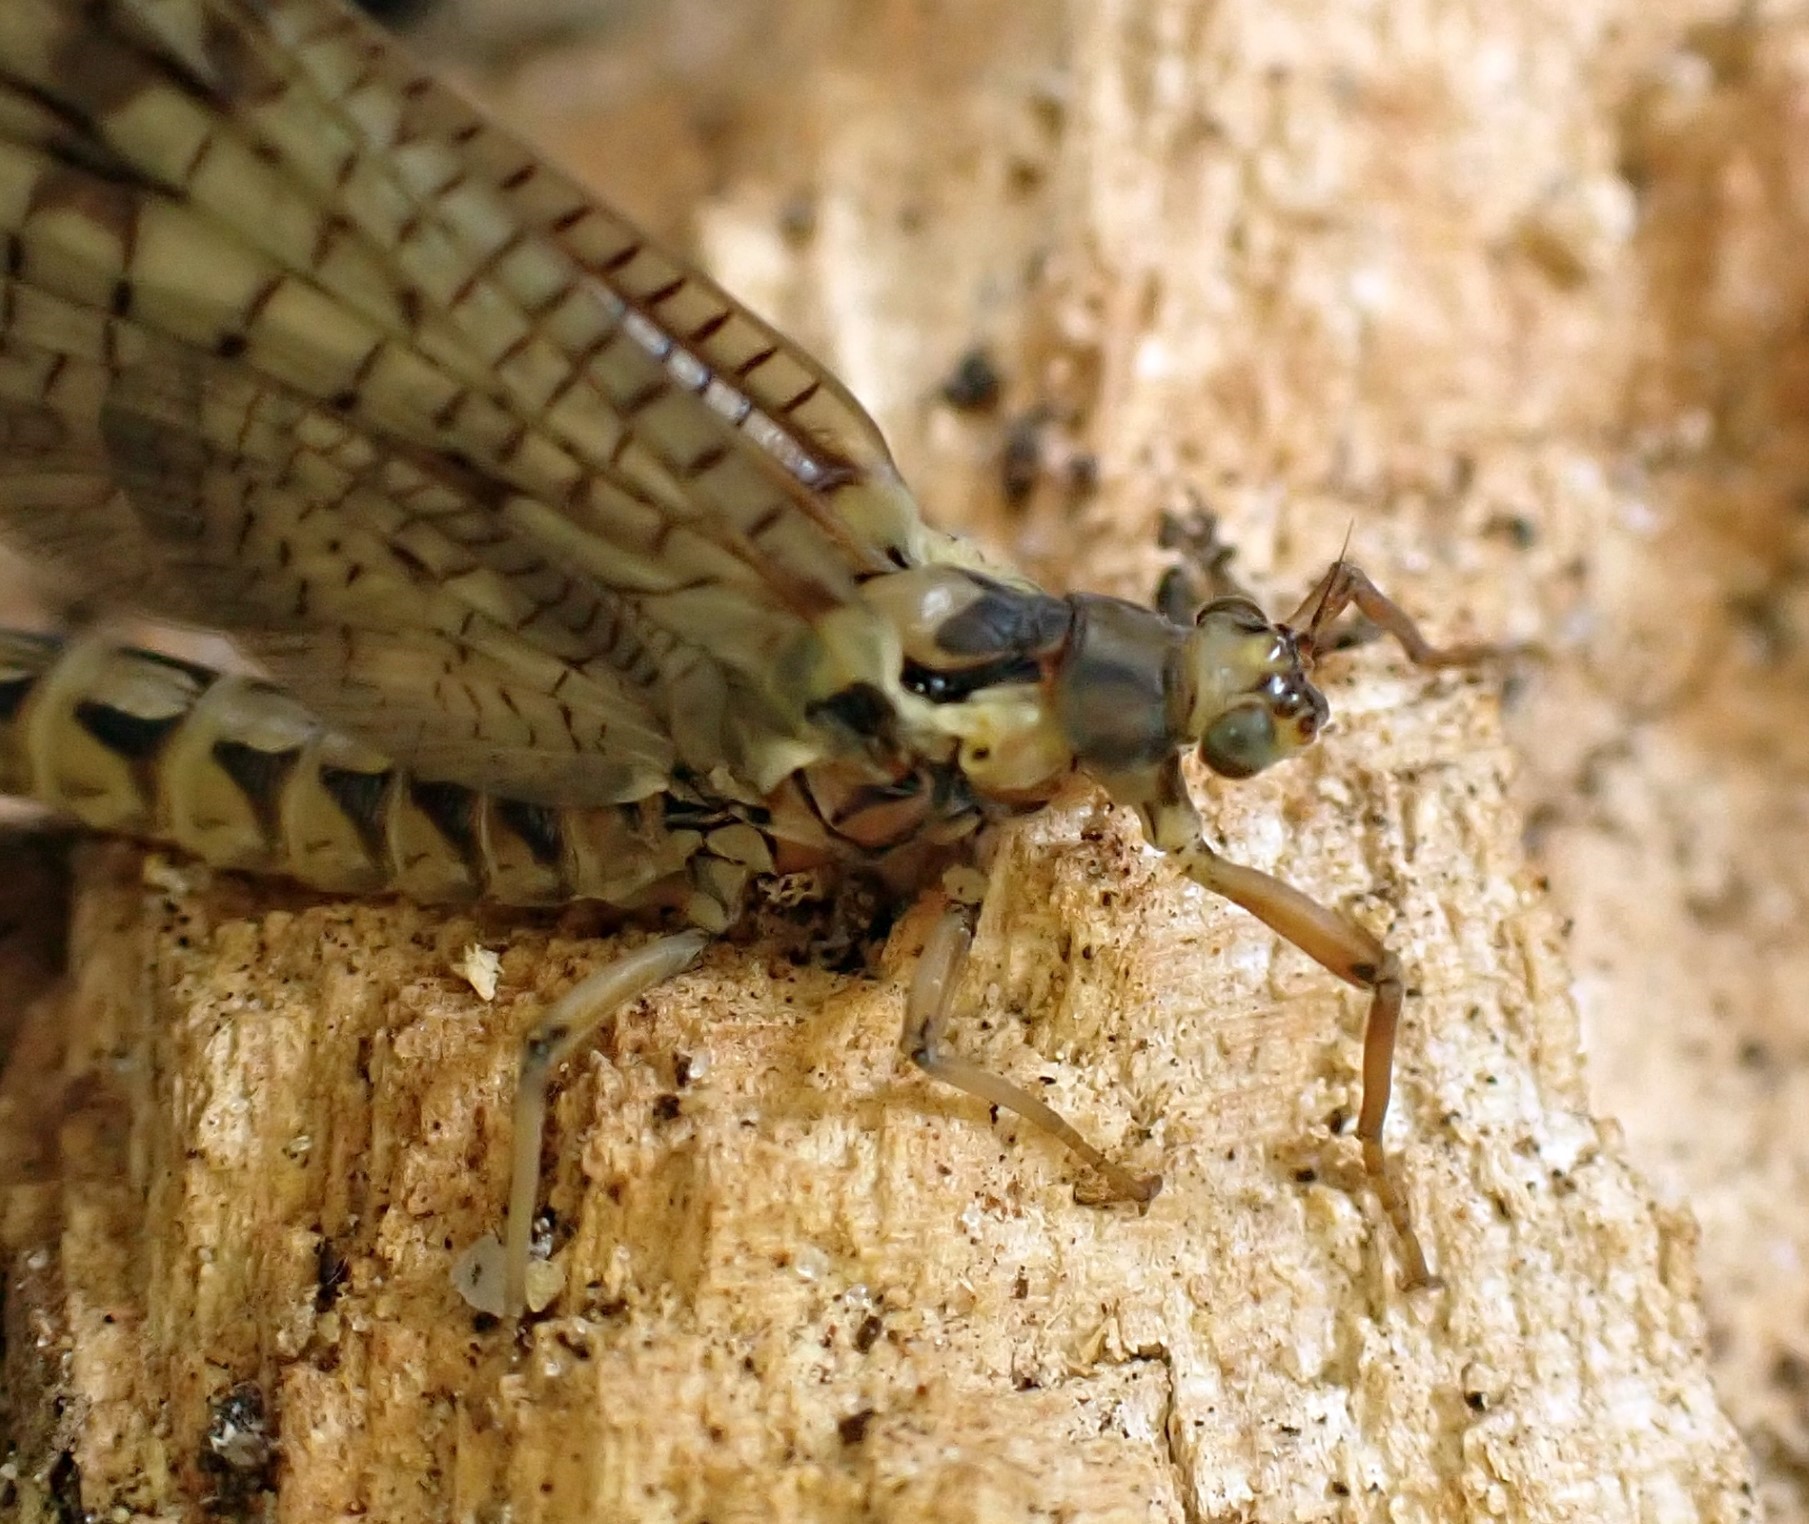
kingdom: Animalia
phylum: Arthropoda
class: Insecta
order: Ephemeroptera
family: Ephemeridae
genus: Ephemera
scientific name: Ephemera vulgata
